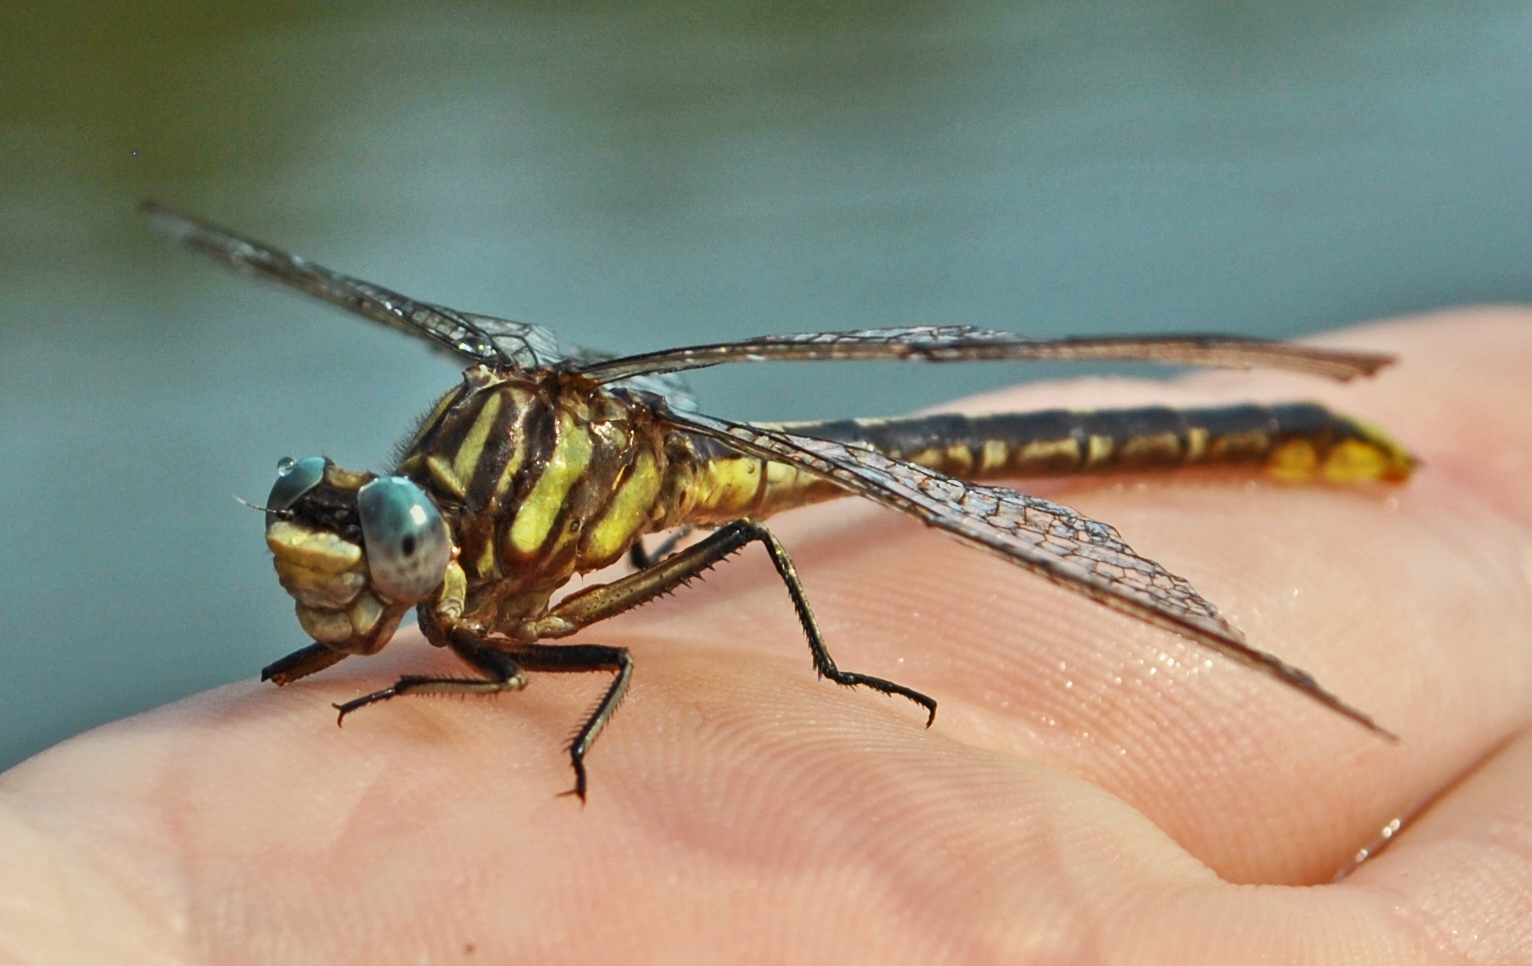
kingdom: Animalia
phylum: Arthropoda
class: Insecta
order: Odonata
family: Gomphidae
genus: Phanogomphus
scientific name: Phanogomphus exilis
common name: Lancet clubtail
